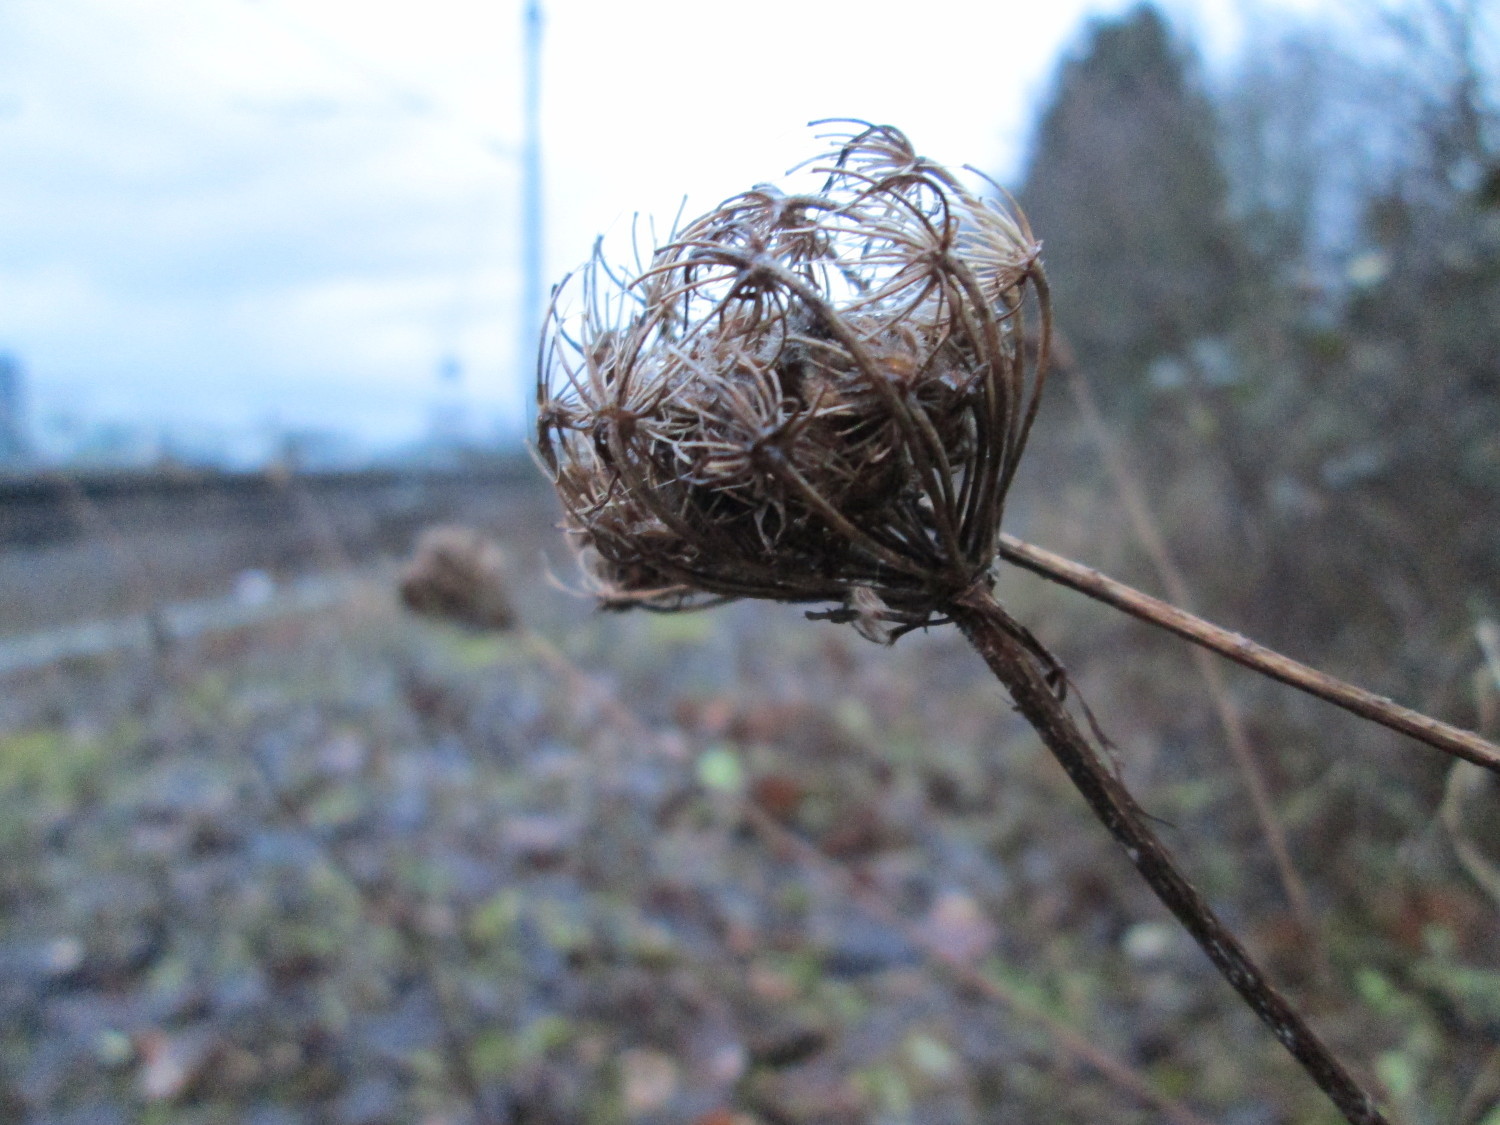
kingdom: Plantae
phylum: Tracheophyta
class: Magnoliopsida
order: Apiales
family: Apiaceae
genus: Daucus
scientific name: Daucus carota
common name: Wild carrot
